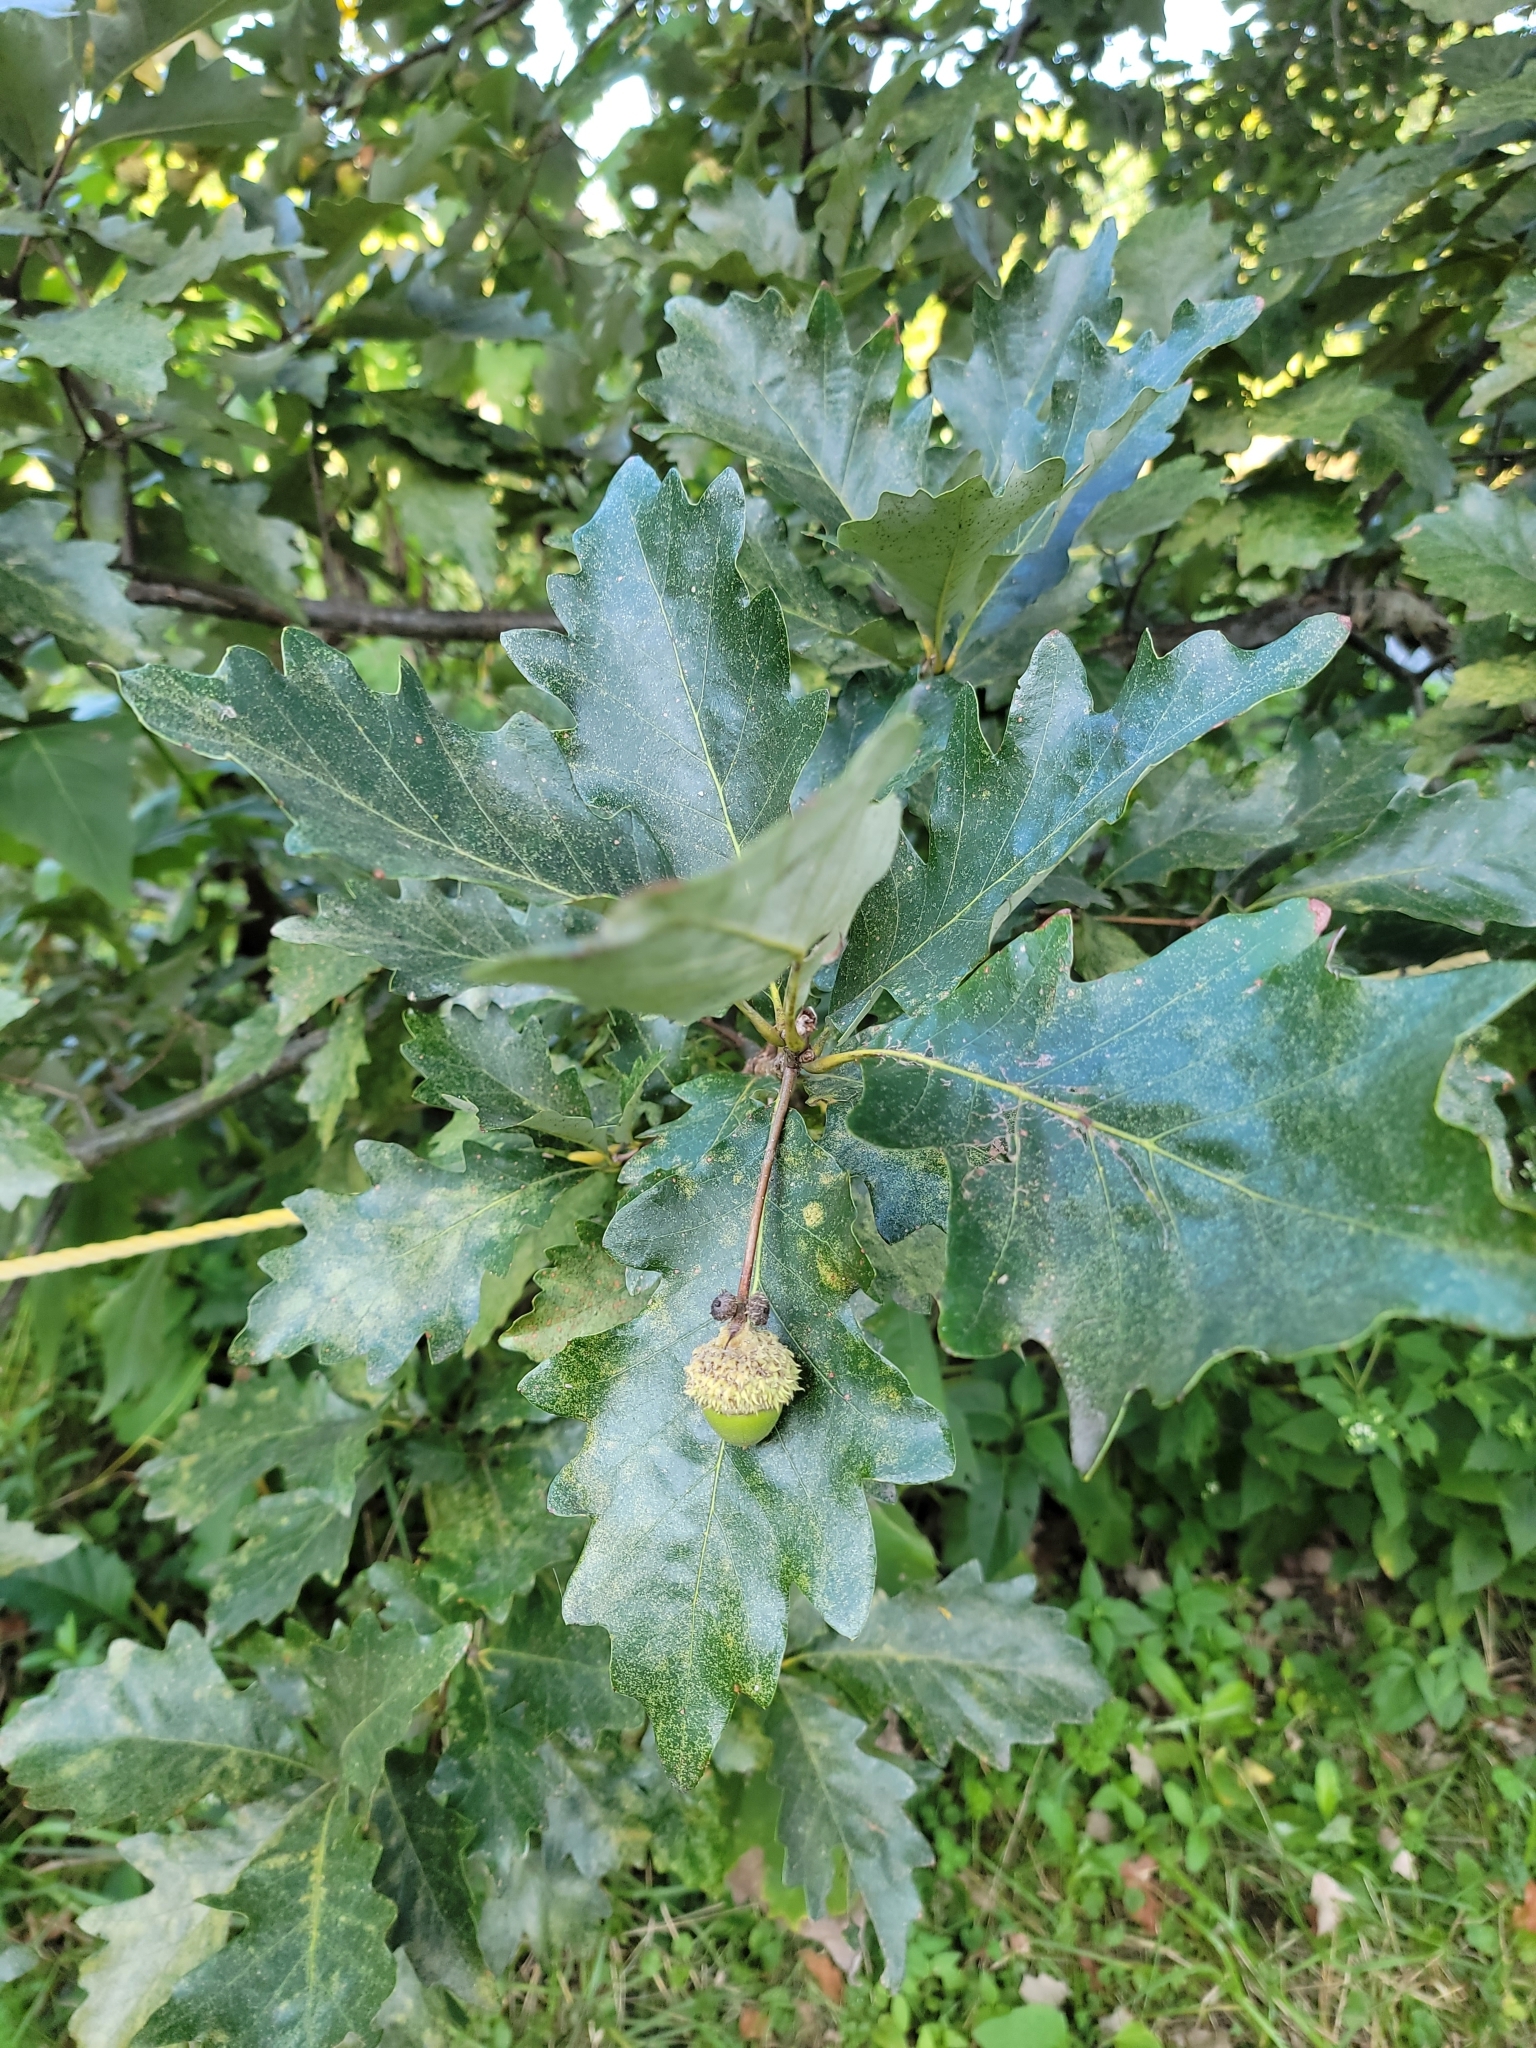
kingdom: Plantae
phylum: Tracheophyta
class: Magnoliopsida
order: Fagales
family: Fagaceae
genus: Quercus
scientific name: Quercus bicolor
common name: Swamp white oak
